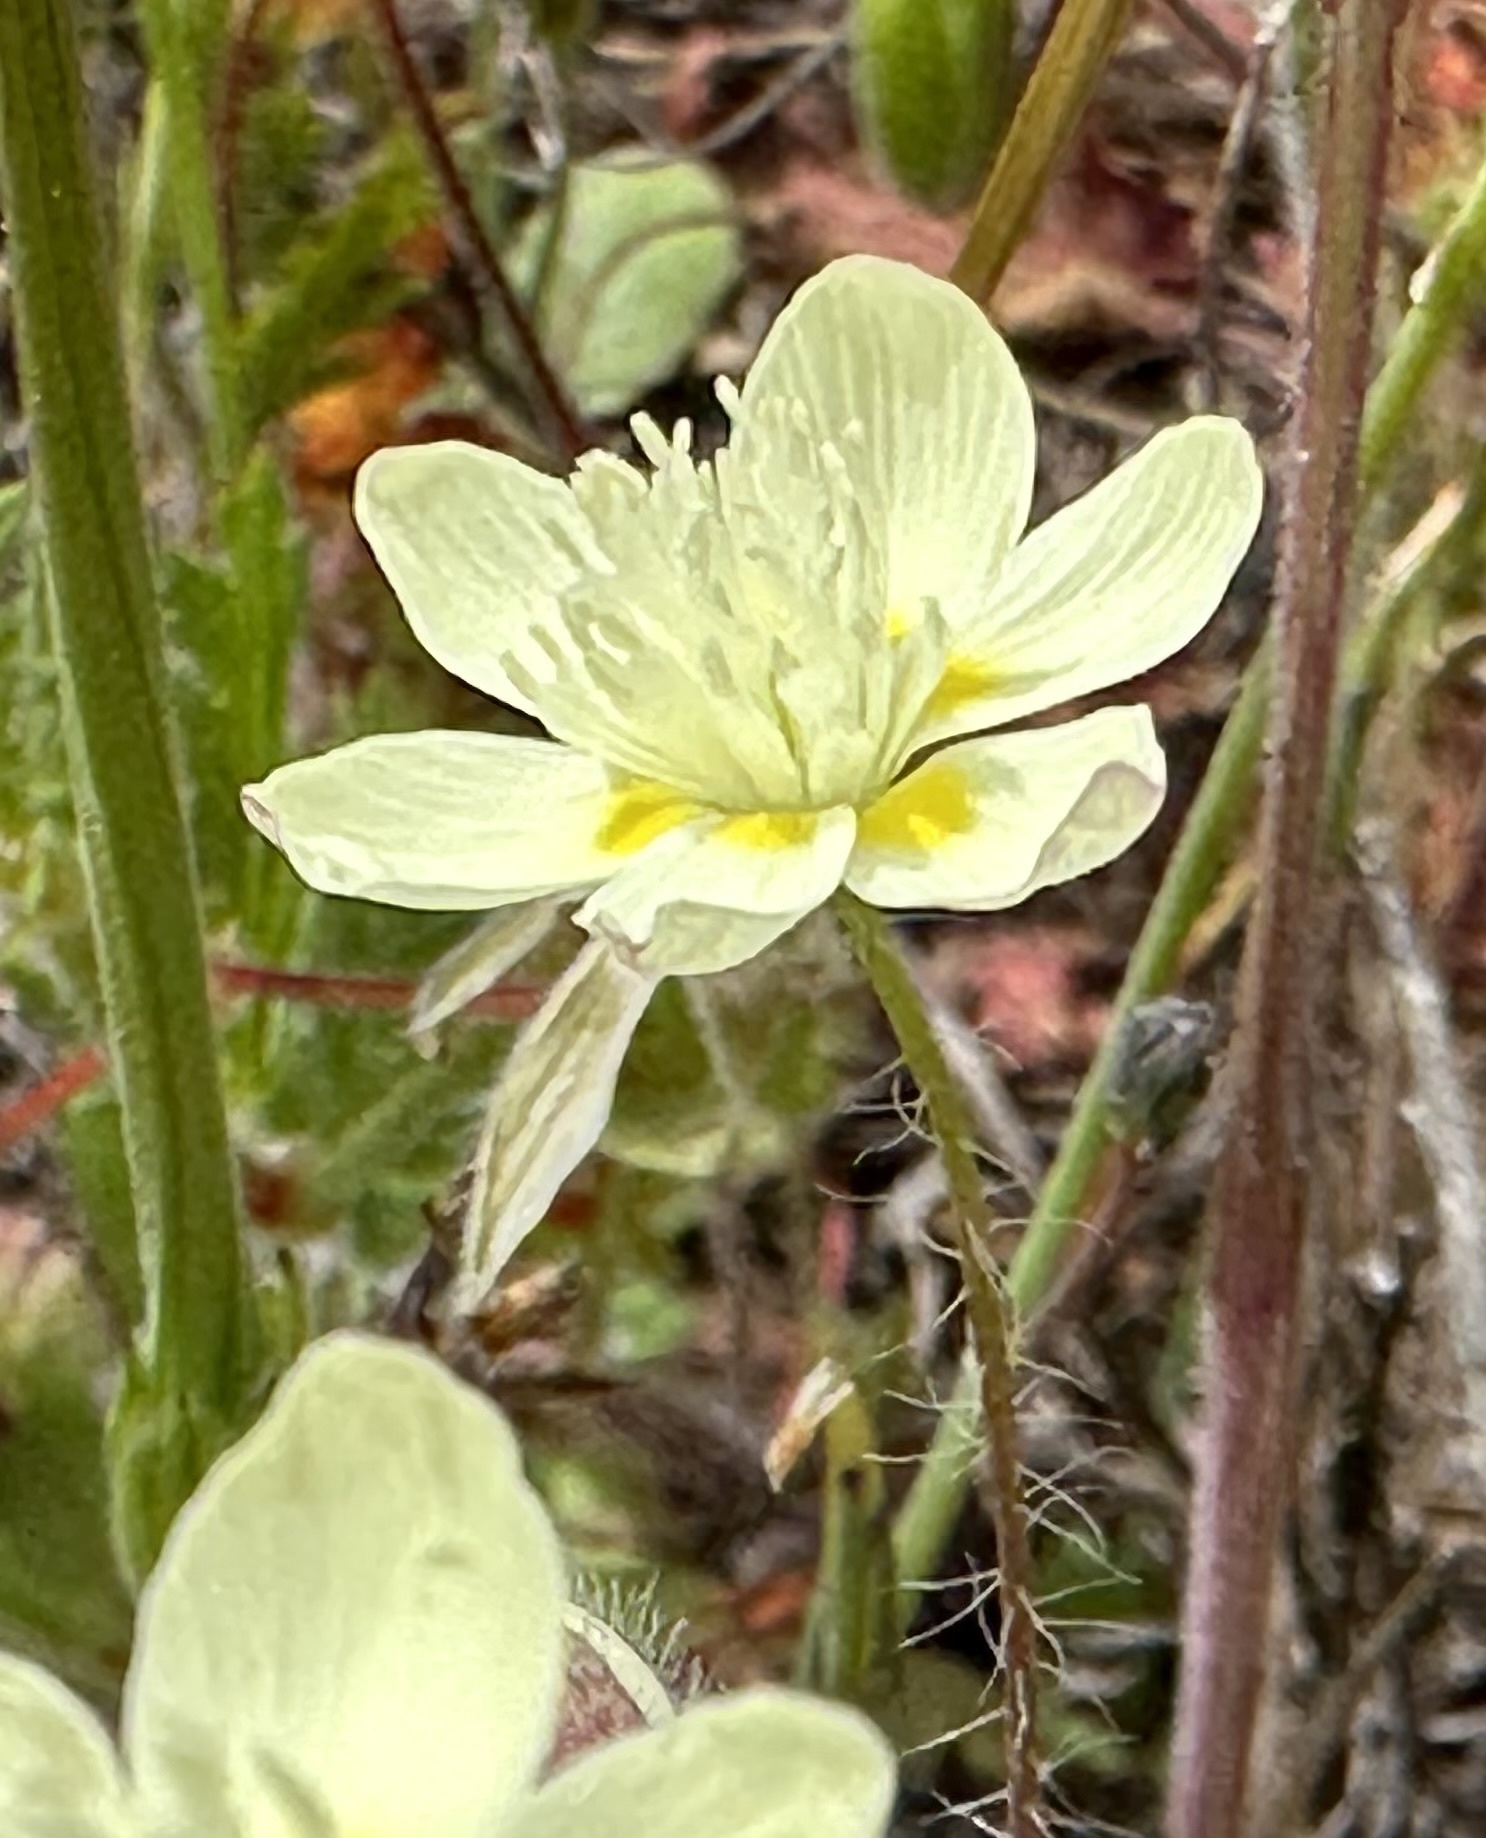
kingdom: Plantae
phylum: Tracheophyta
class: Magnoliopsida
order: Ranunculales
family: Papaveraceae
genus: Platystemon
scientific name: Platystemon californicus
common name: Cream-cups
